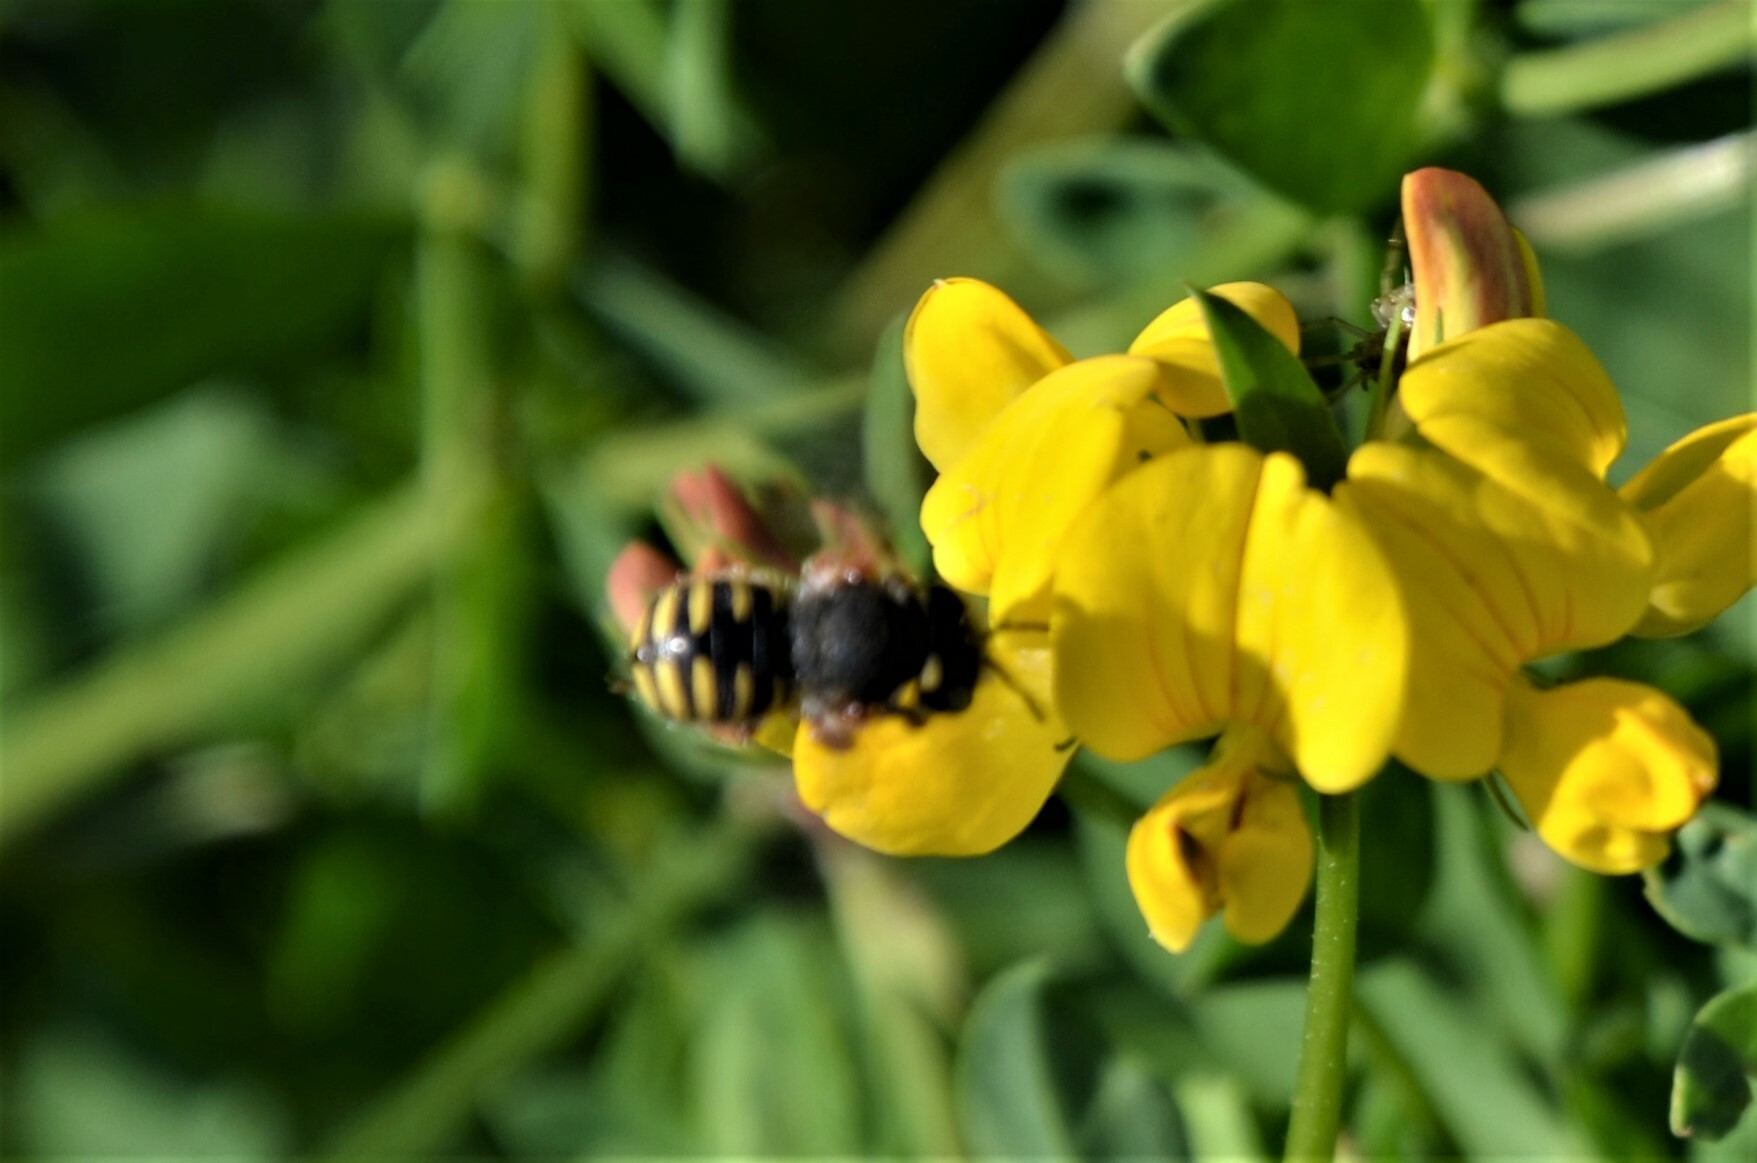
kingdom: Animalia
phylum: Arthropoda
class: Insecta
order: Hymenoptera
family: Megachilidae
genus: Anthidium
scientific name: Anthidium oblongatum
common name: Oblong wool carder bee
